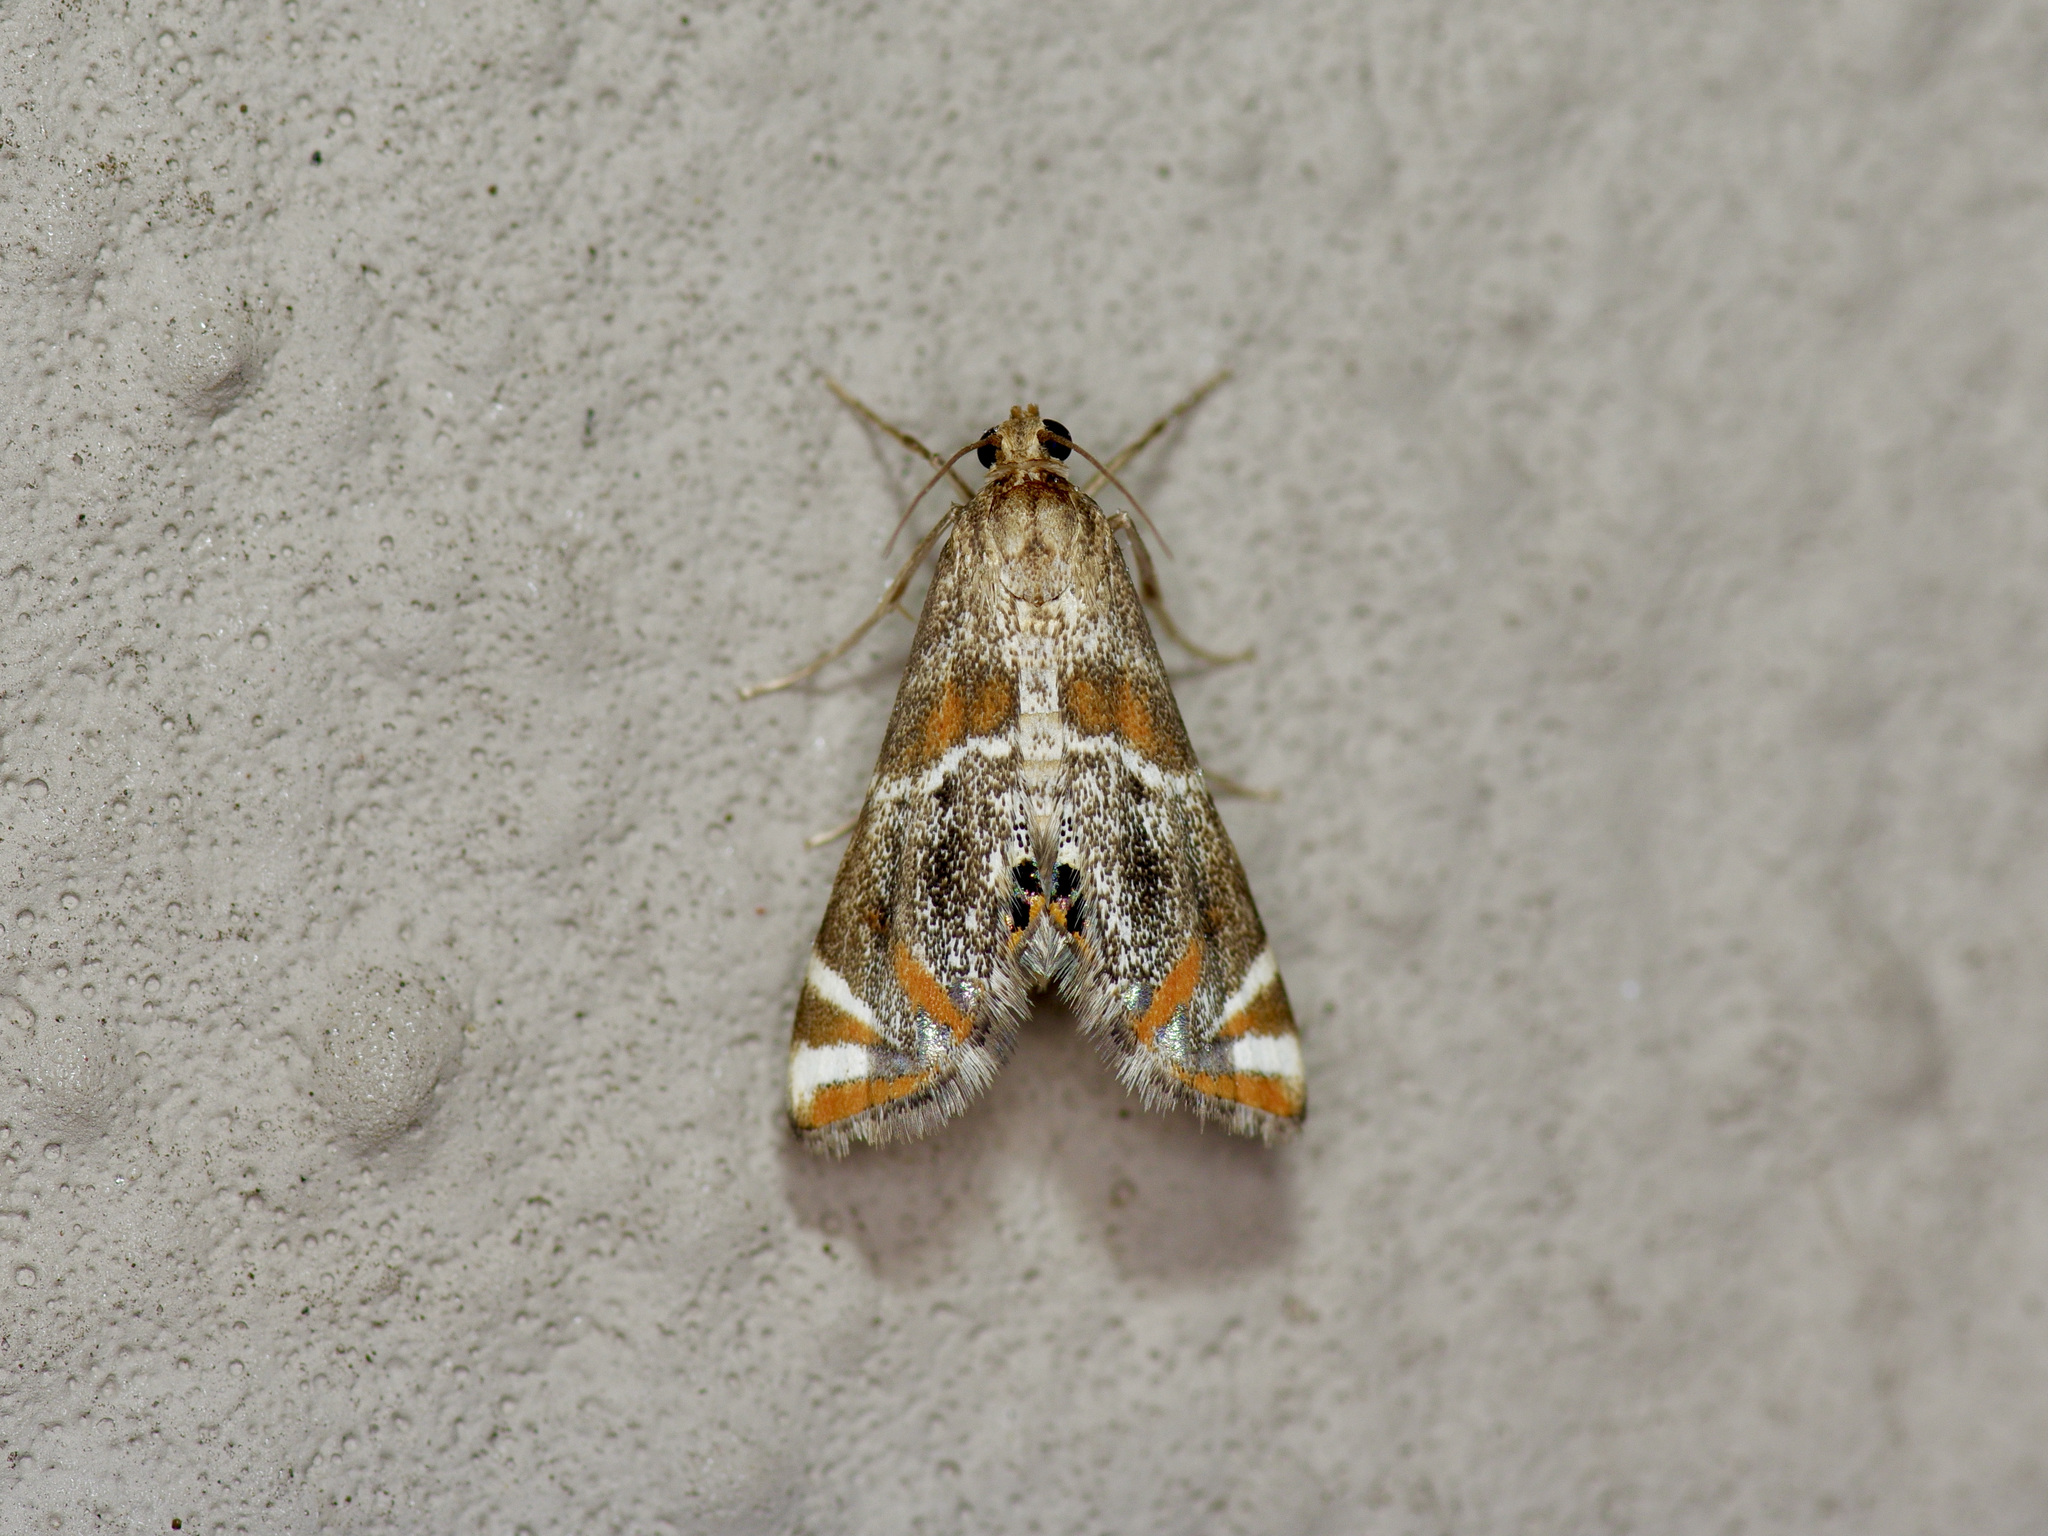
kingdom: Animalia
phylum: Arthropoda
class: Insecta
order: Lepidoptera
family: Crambidae
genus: Petrophila
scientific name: Petrophila jaliscalis
